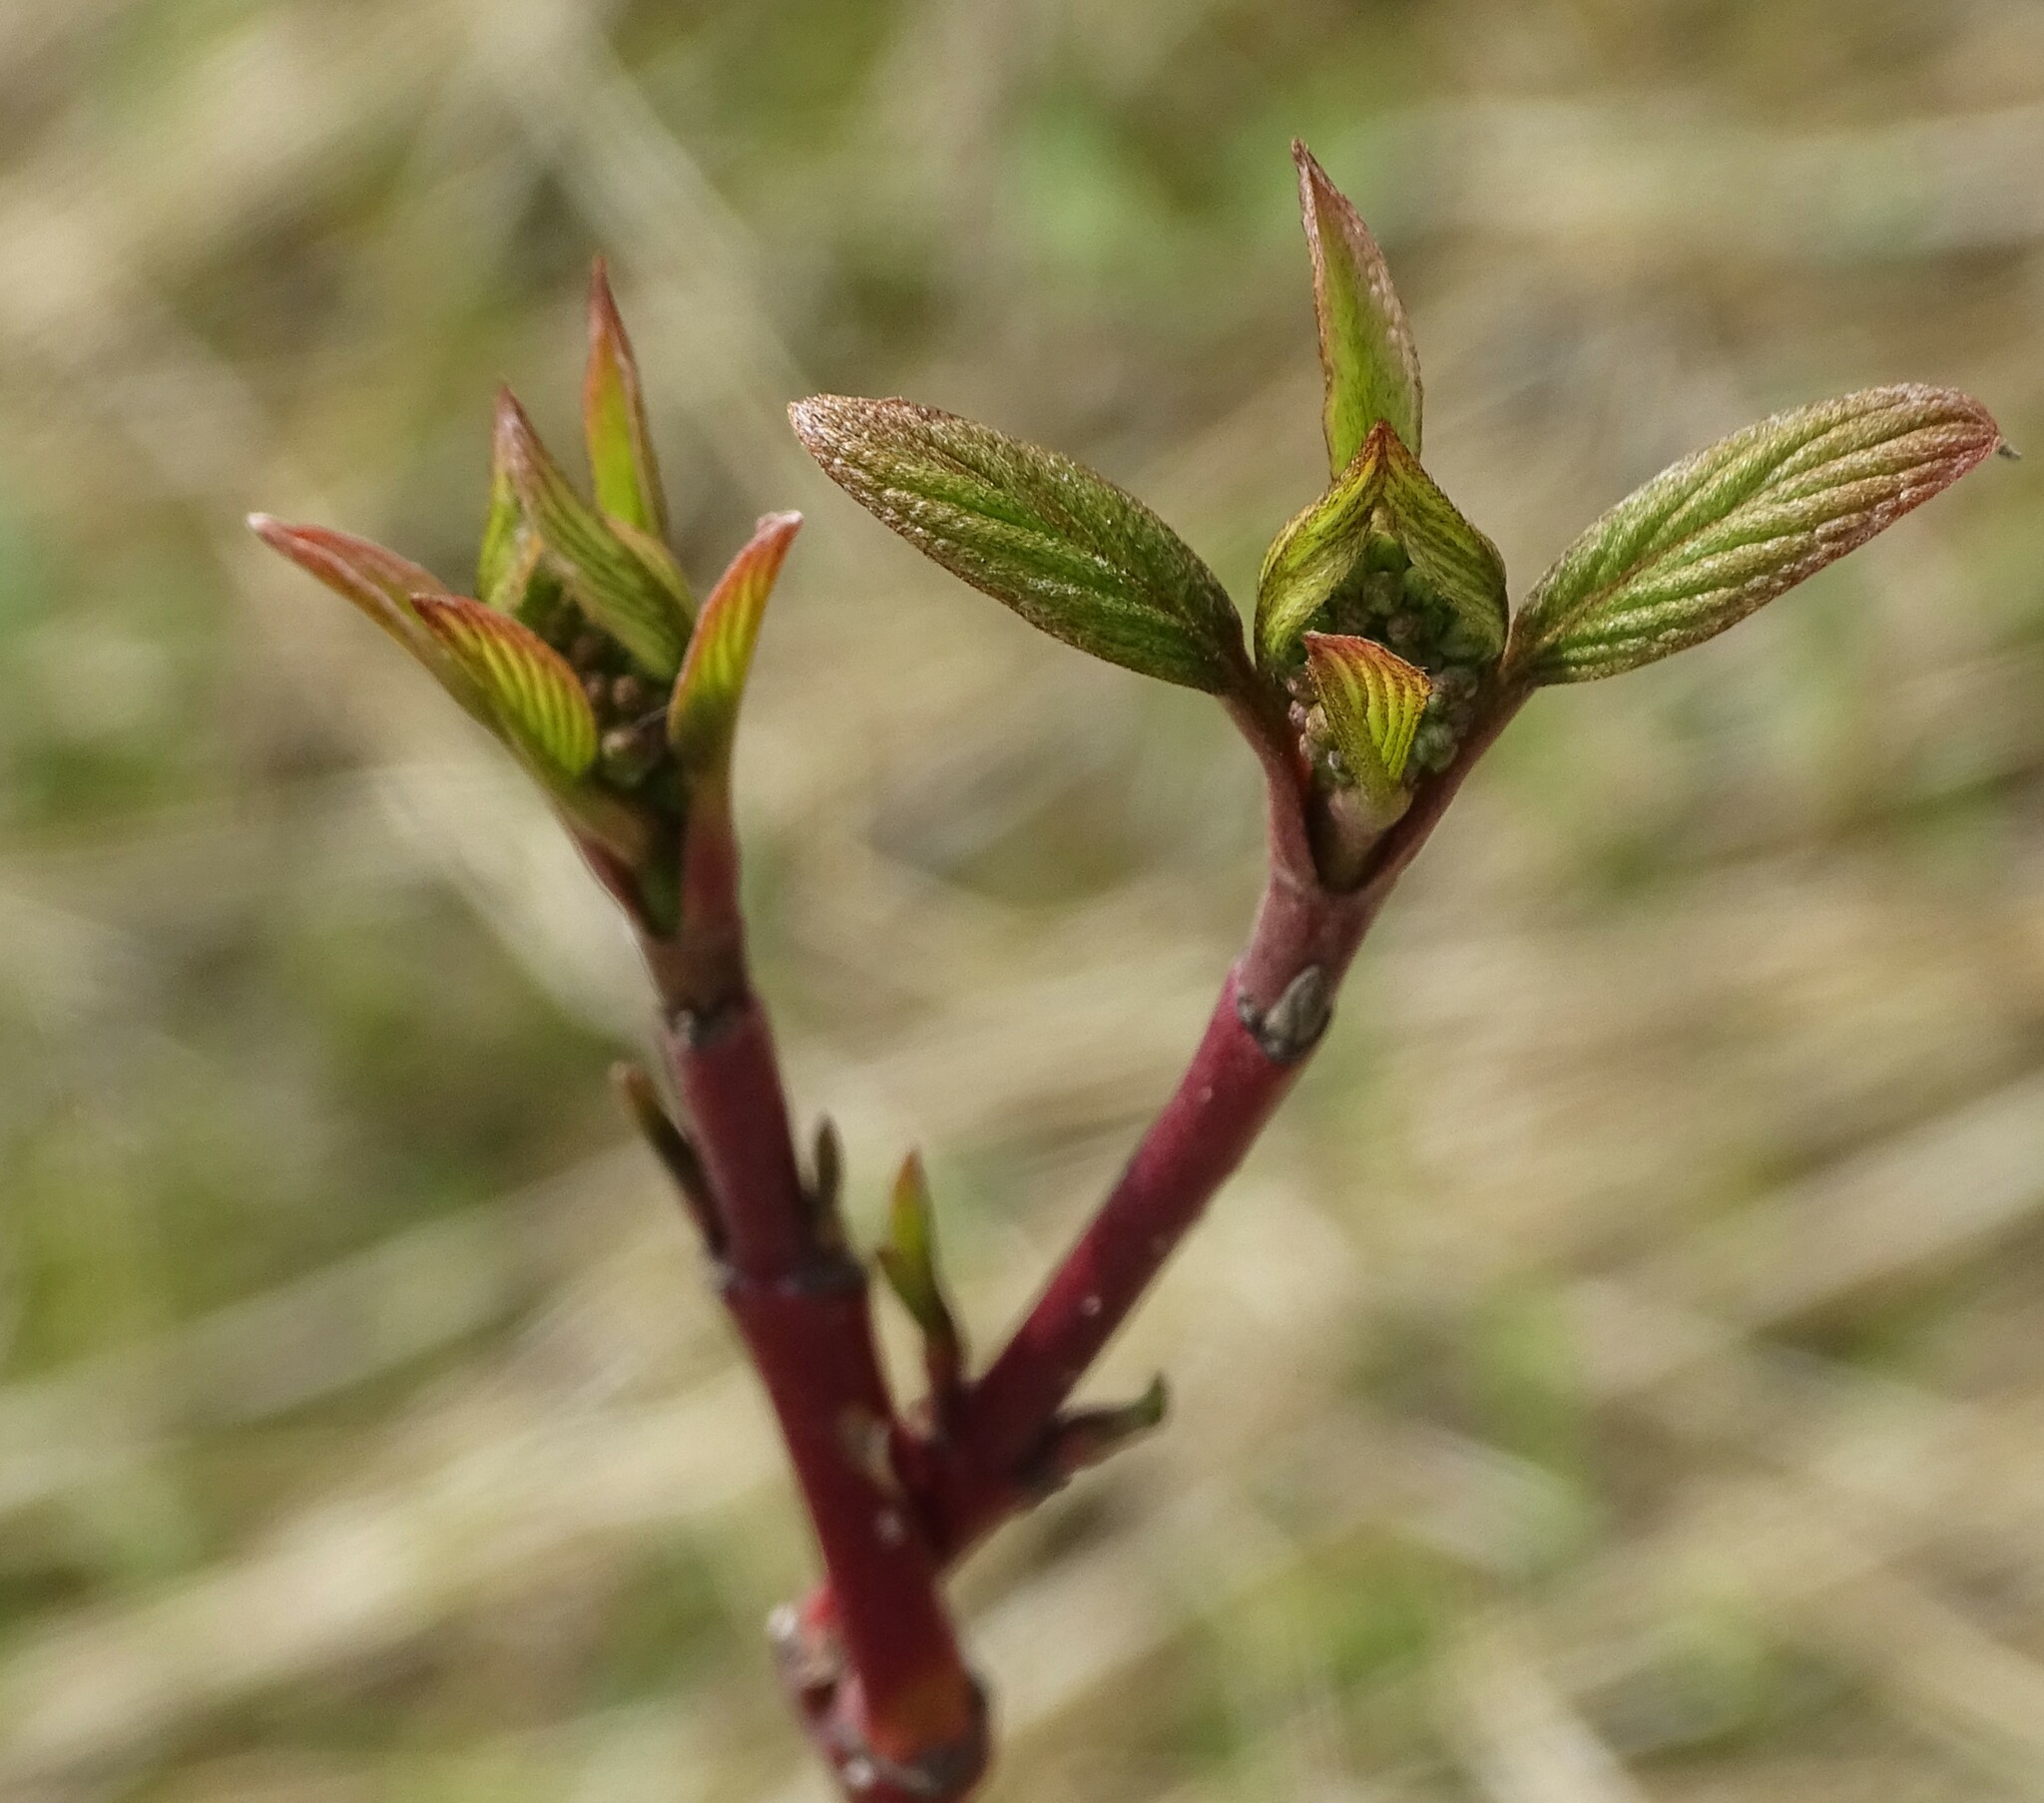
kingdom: Plantae
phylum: Tracheophyta
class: Magnoliopsida
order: Cornales
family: Cornaceae
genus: Cornus
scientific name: Cornus sericea
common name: Red-osier dogwood
